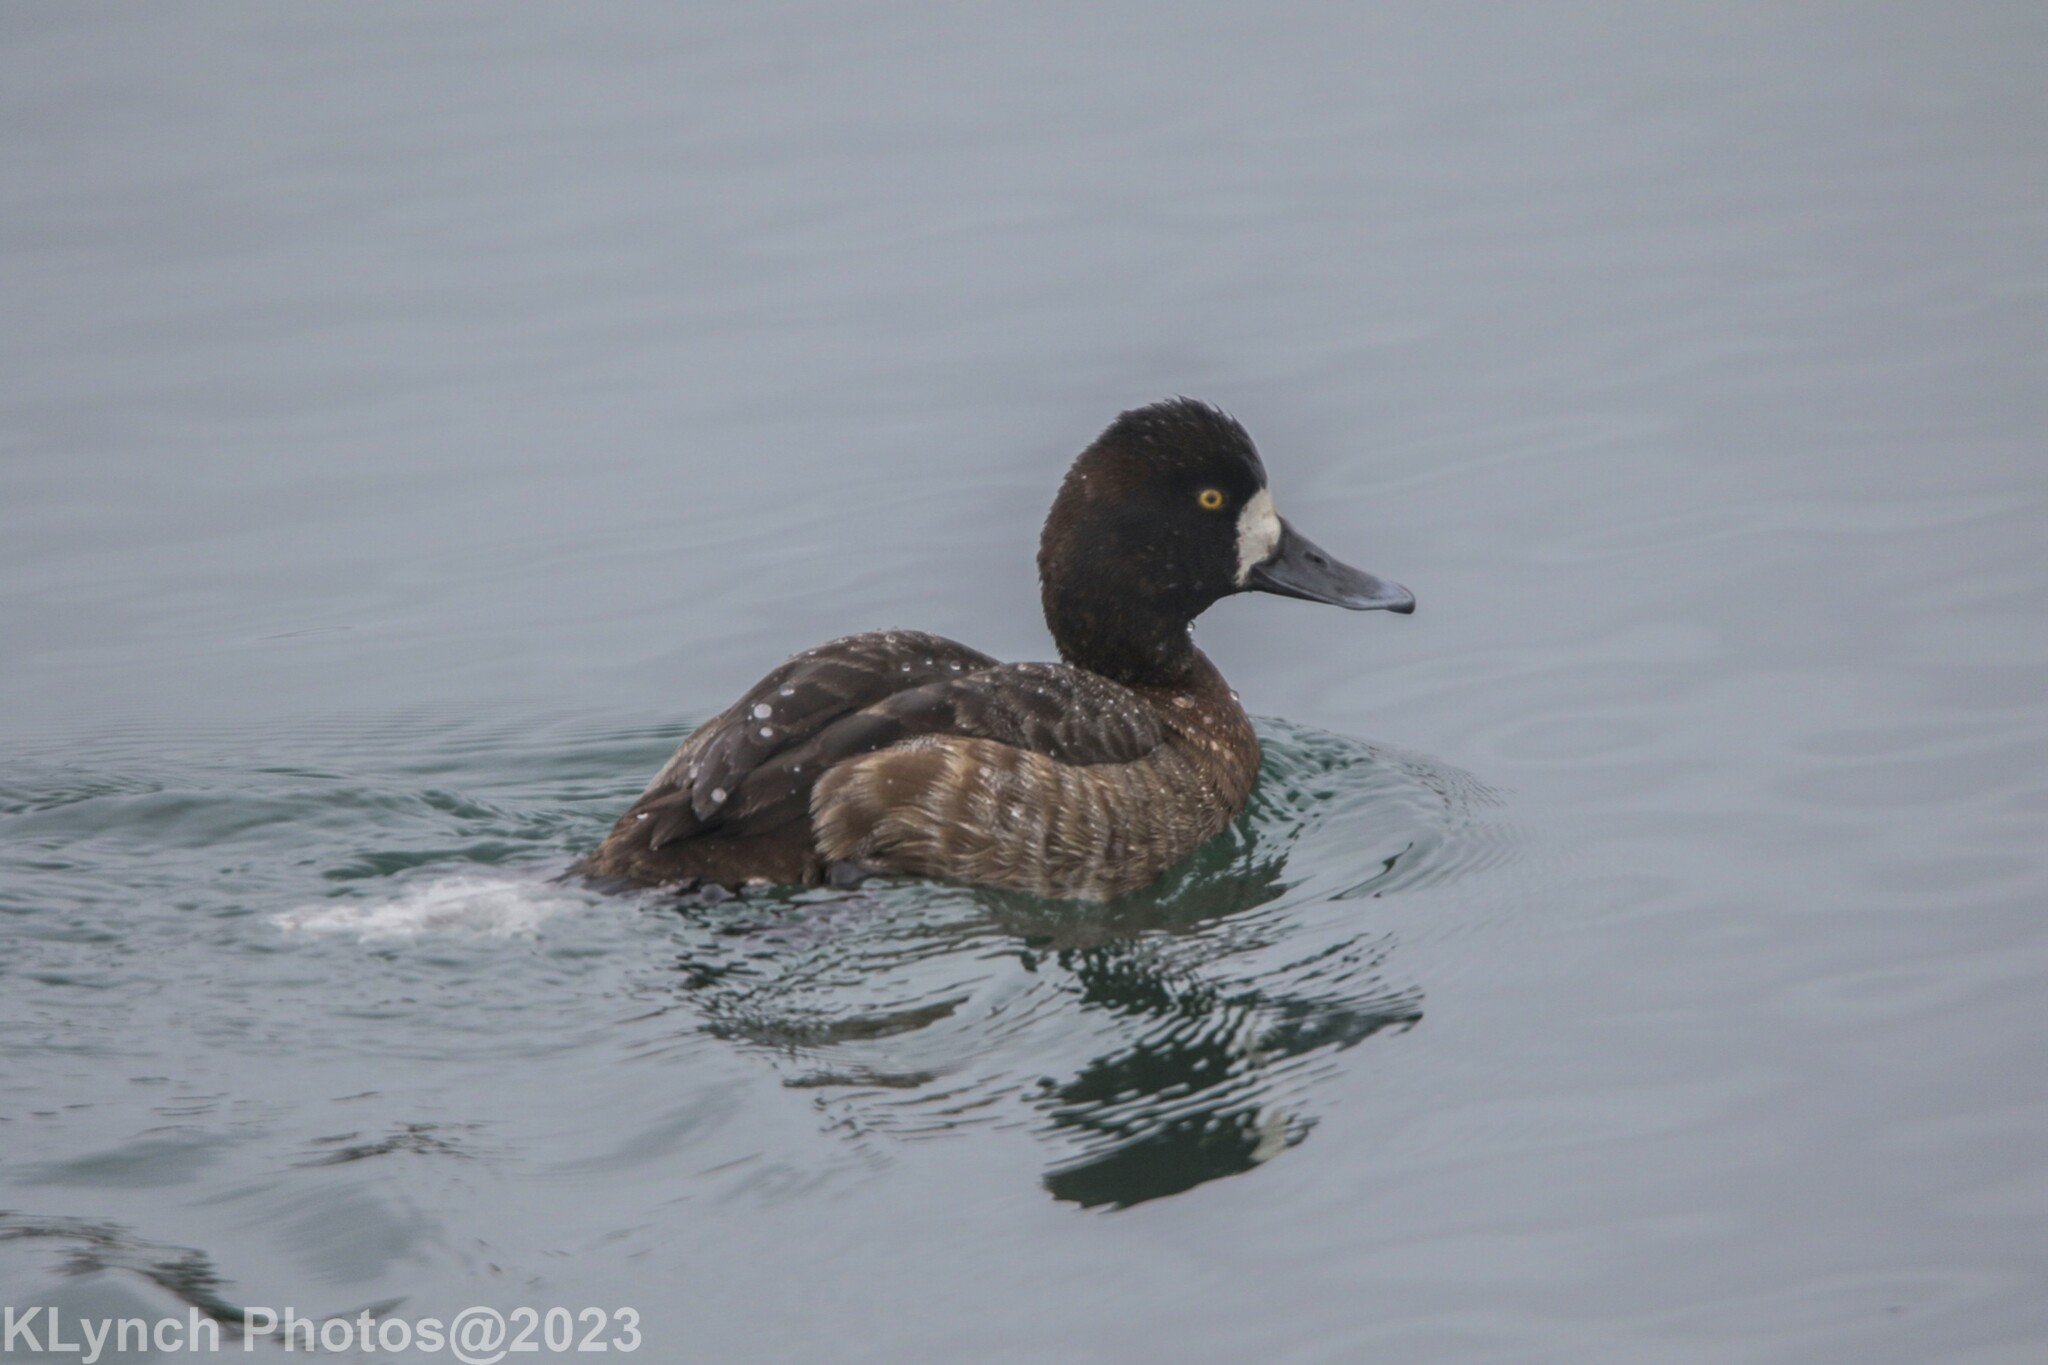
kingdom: Animalia
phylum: Chordata
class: Aves
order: Anseriformes
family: Anatidae
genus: Aythya
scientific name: Aythya marila
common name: Greater scaup
